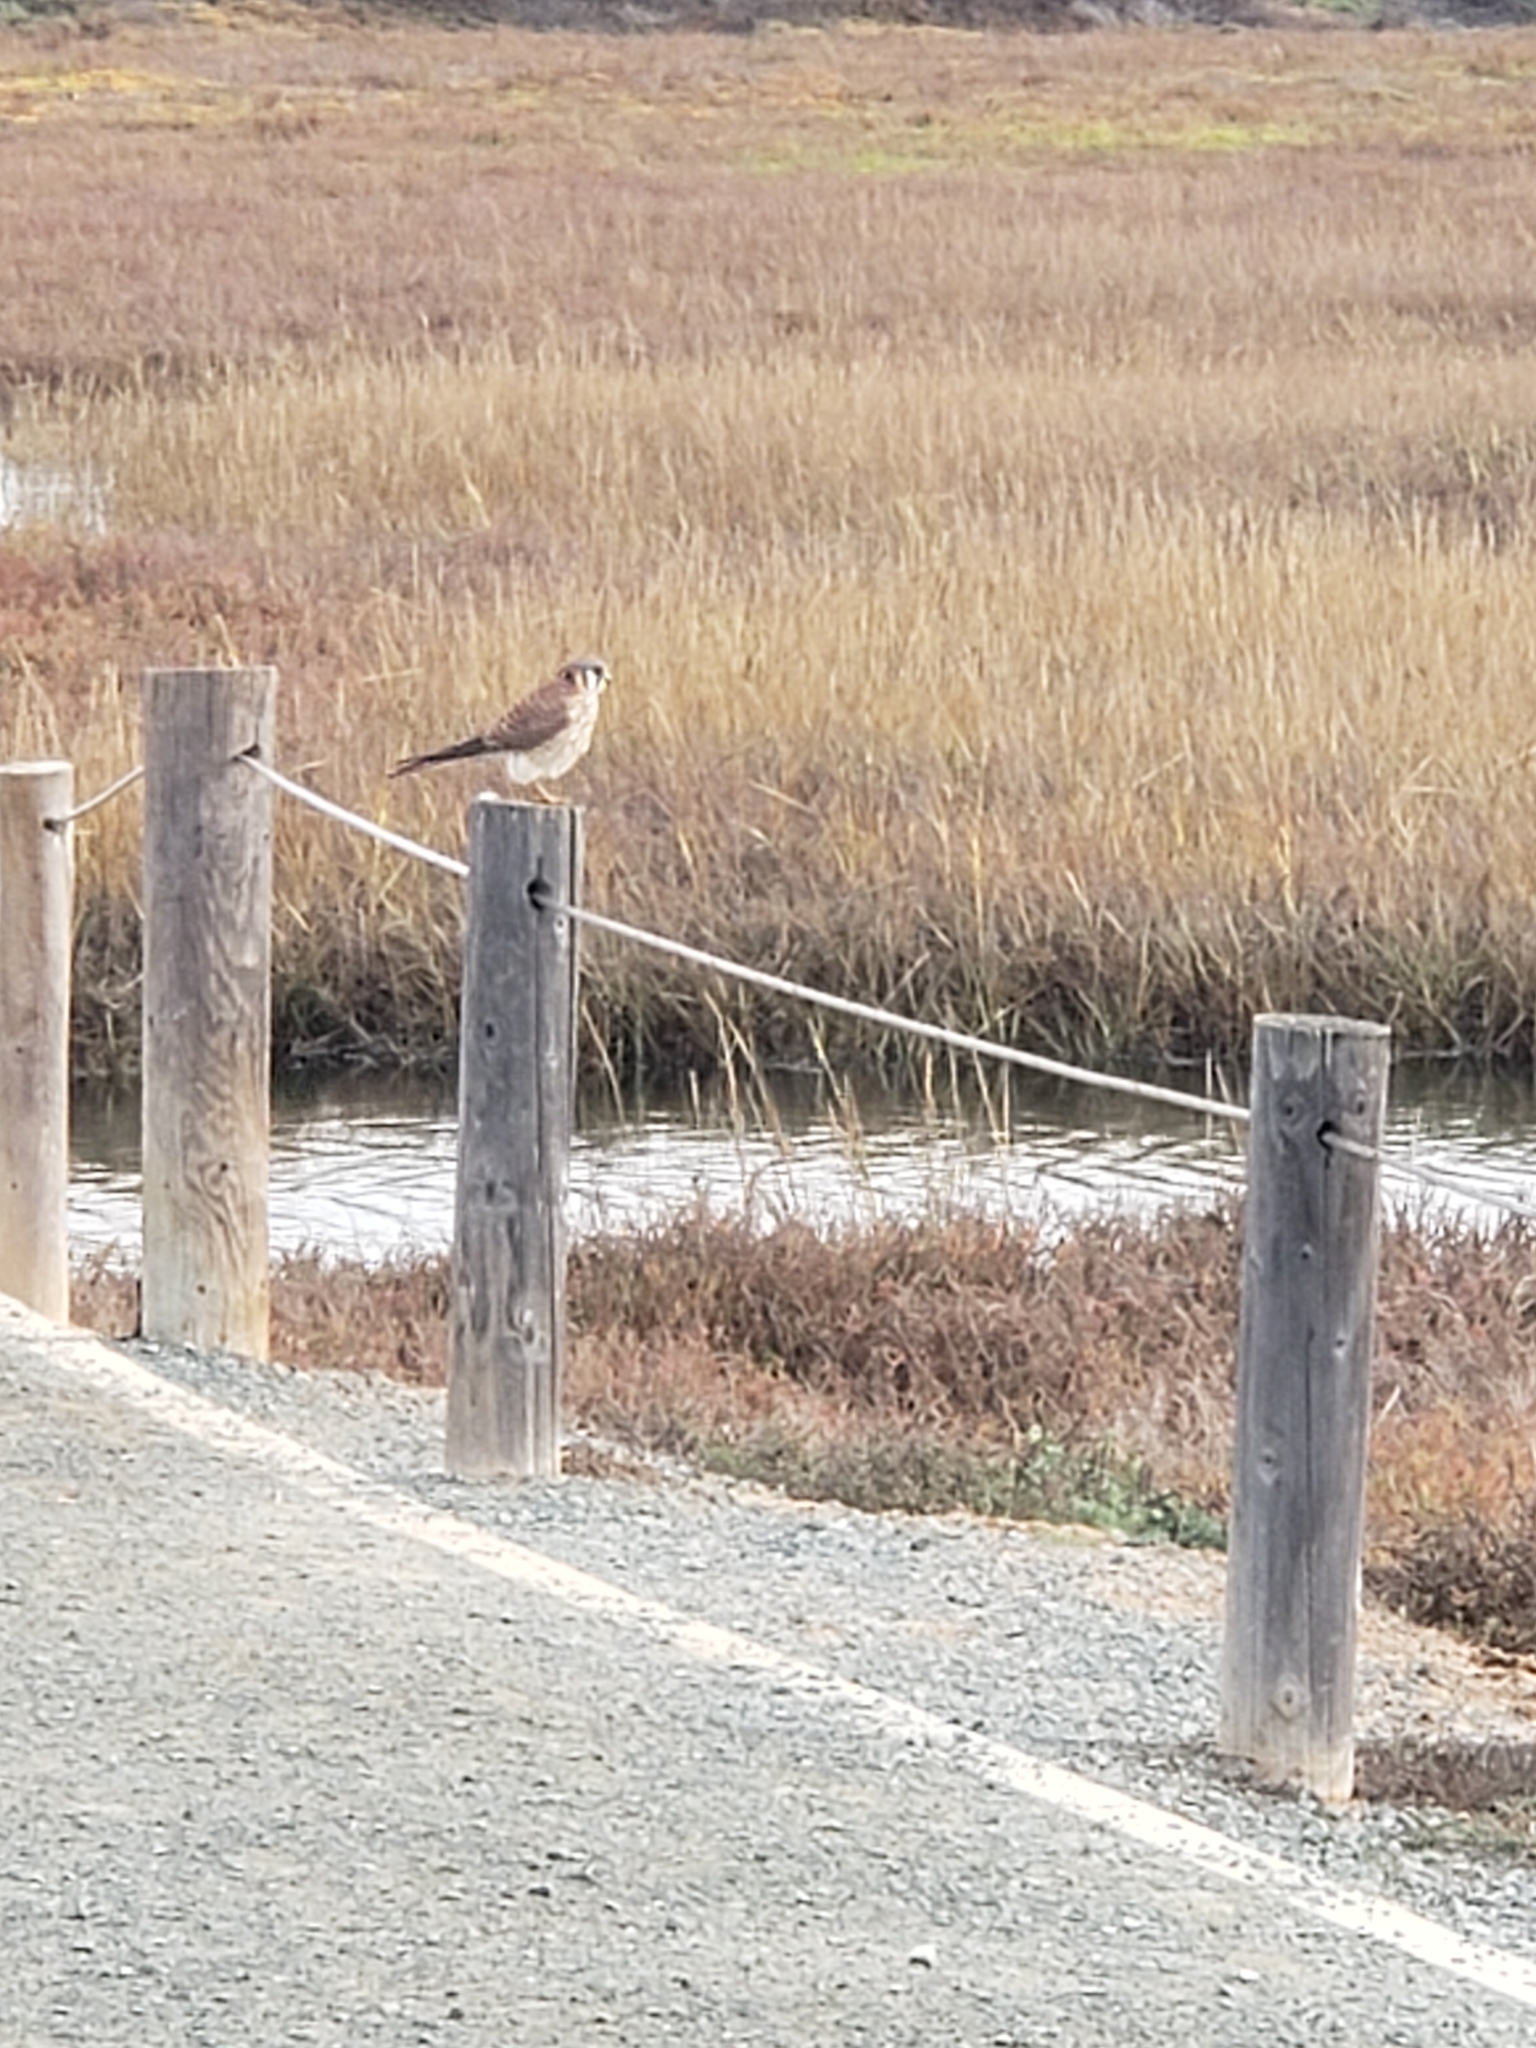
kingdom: Animalia
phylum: Chordata
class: Aves
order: Falconiformes
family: Falconidae
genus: Falco
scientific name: Falco sparverius
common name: American kestrel
